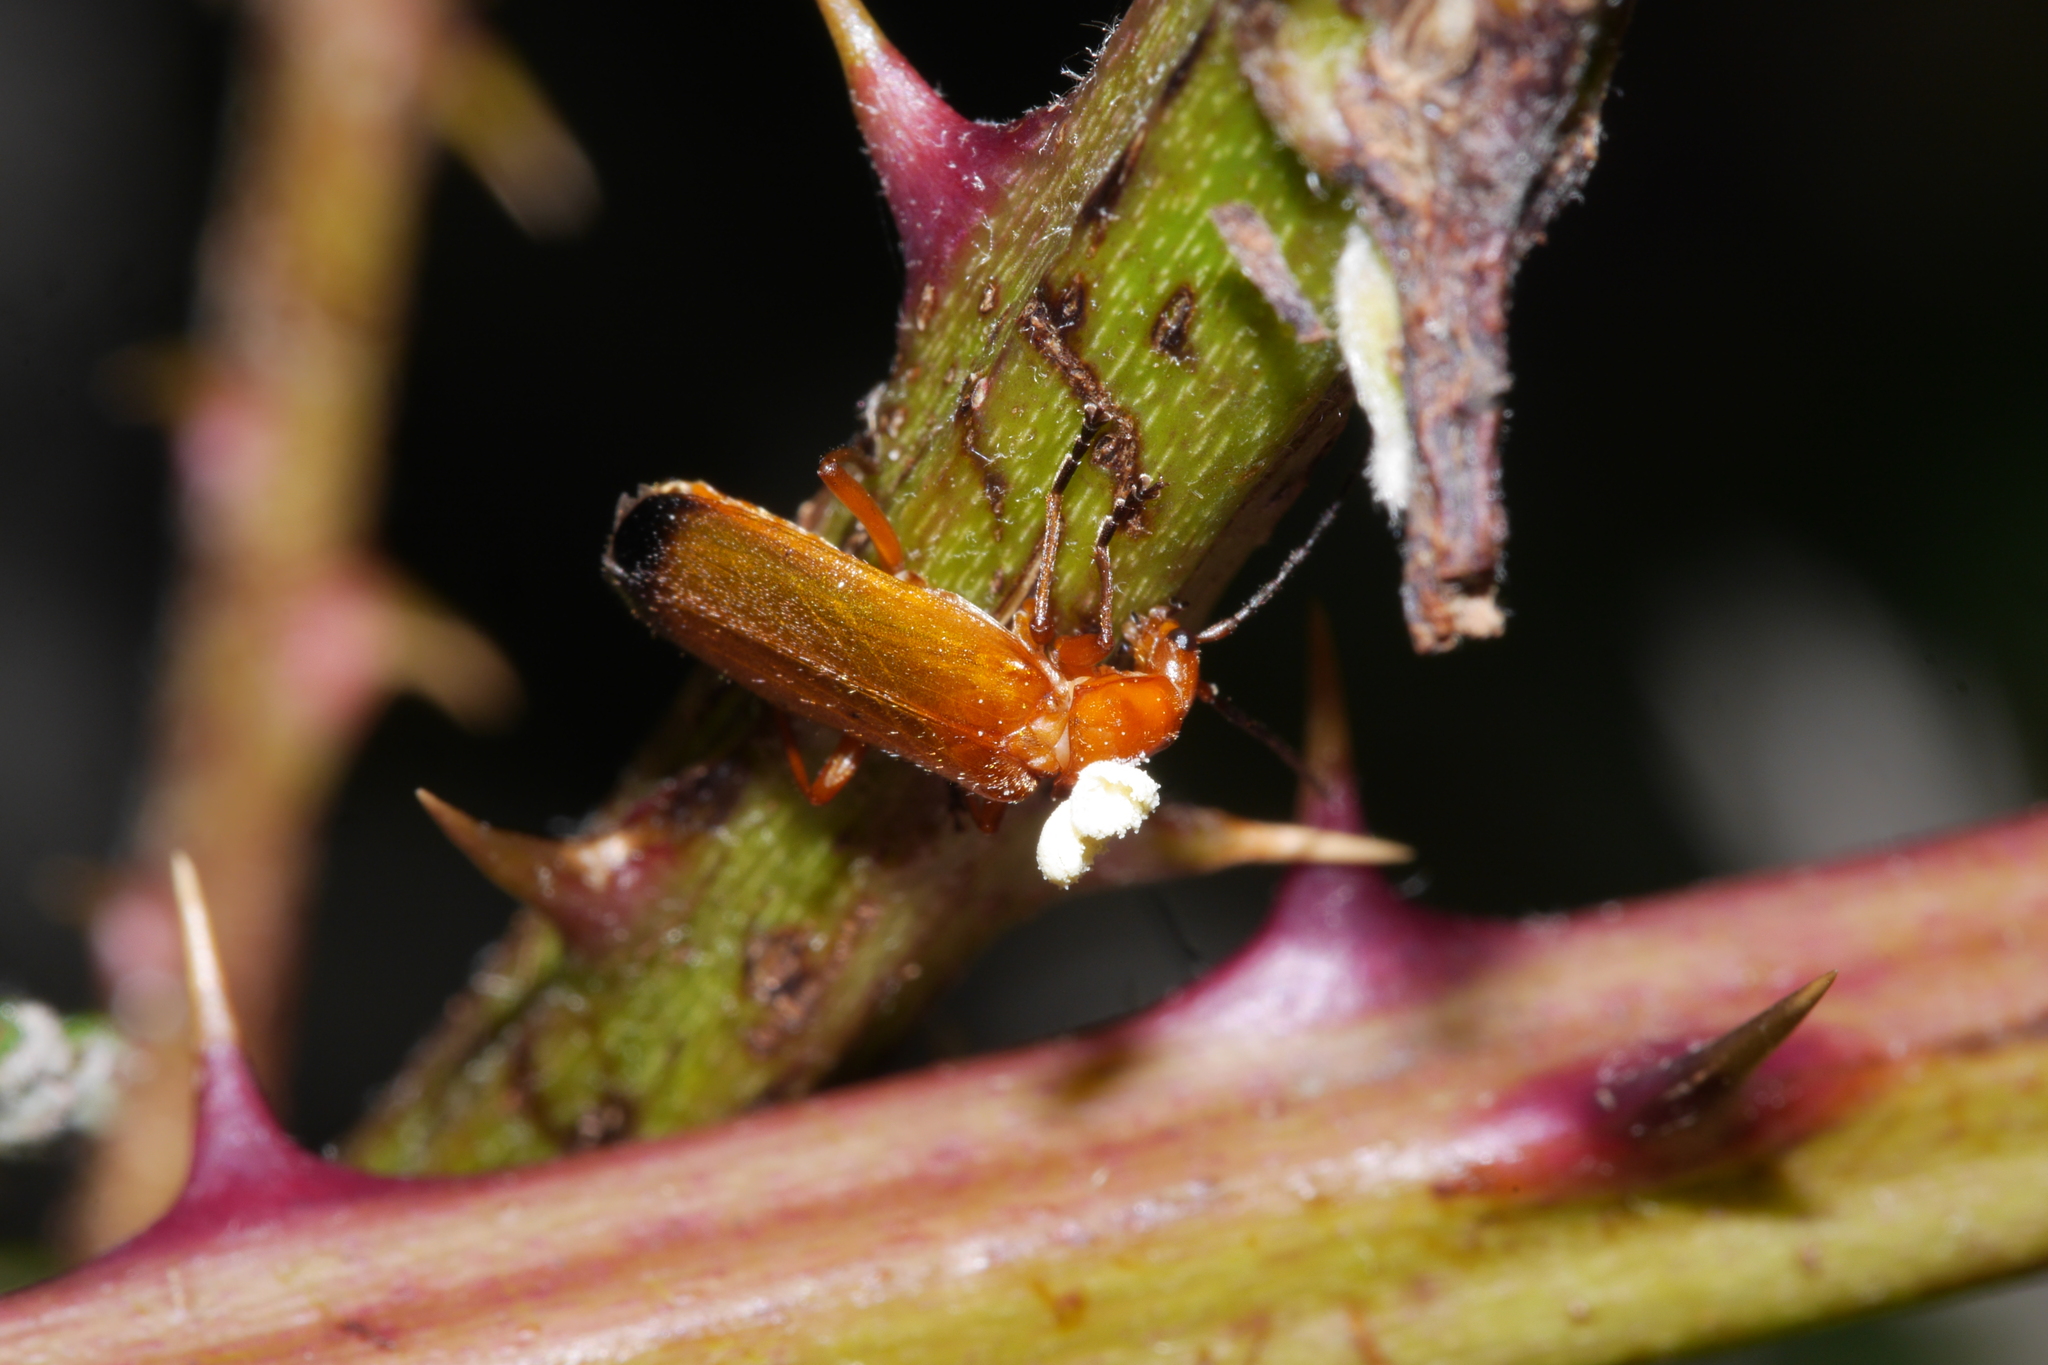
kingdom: Animalia
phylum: Arthropoda
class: Insecta
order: Coleoptera
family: Cantharidae
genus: Rhagonycha
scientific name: Rhagonycha fulva
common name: Common red soldier beetle
